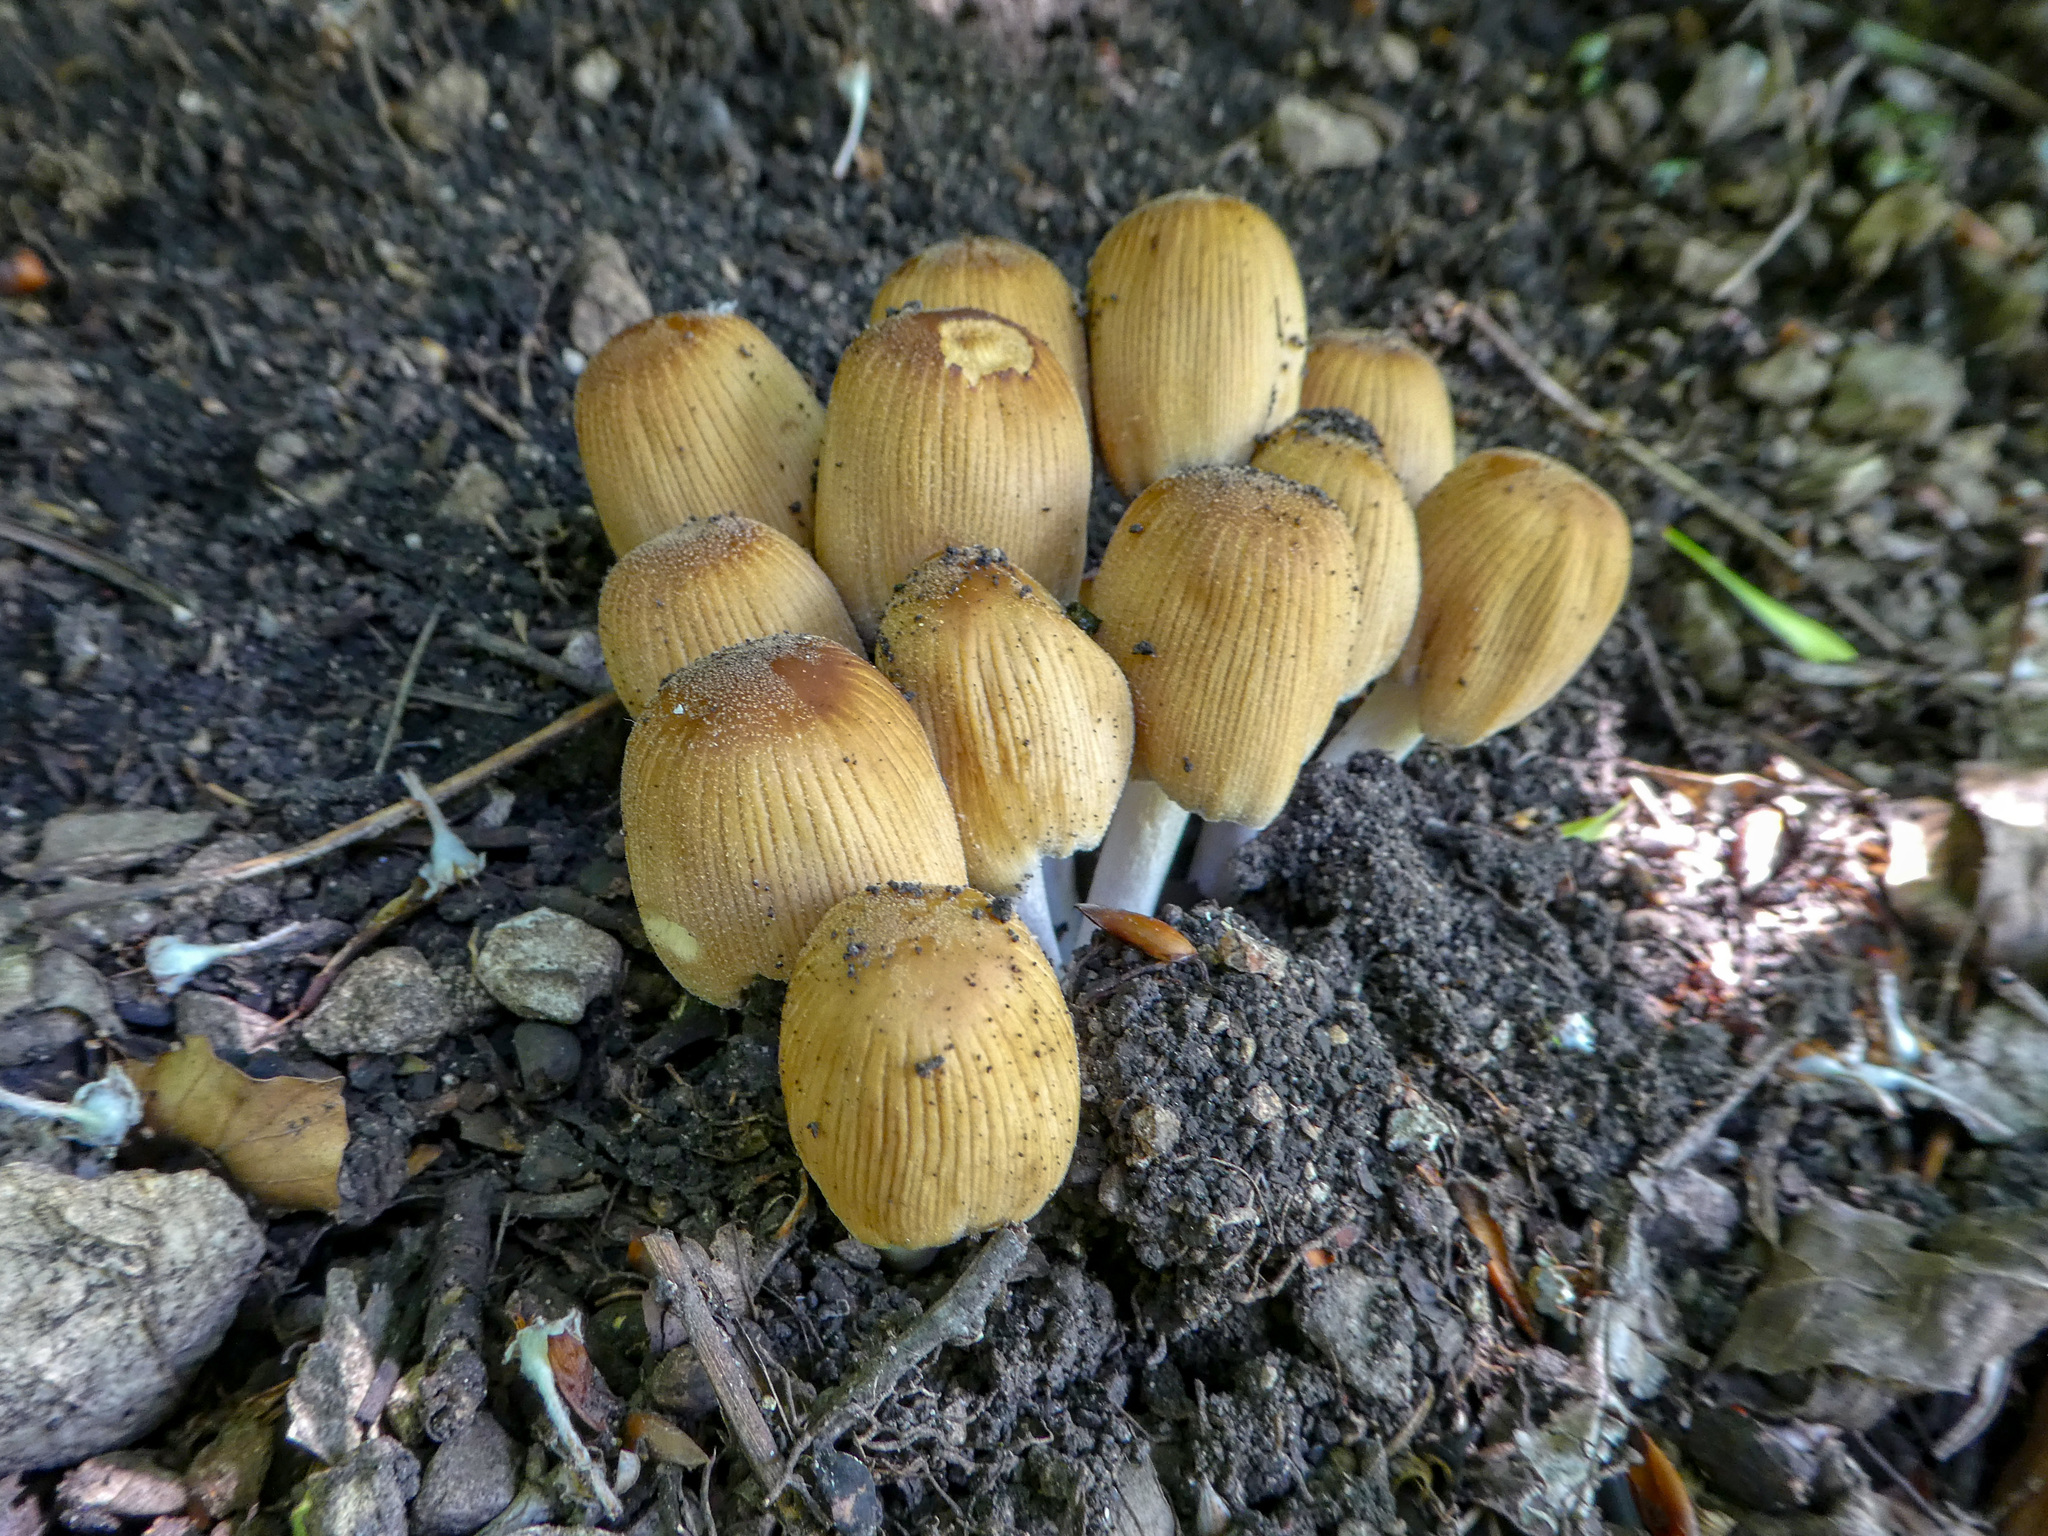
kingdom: Fungi
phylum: Basidiomycota
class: Agaricomycetes
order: Agaricales
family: Psathyrellaceae
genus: Coprinellus
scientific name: Coprinellus micaceus
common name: Glistening ink-cap
